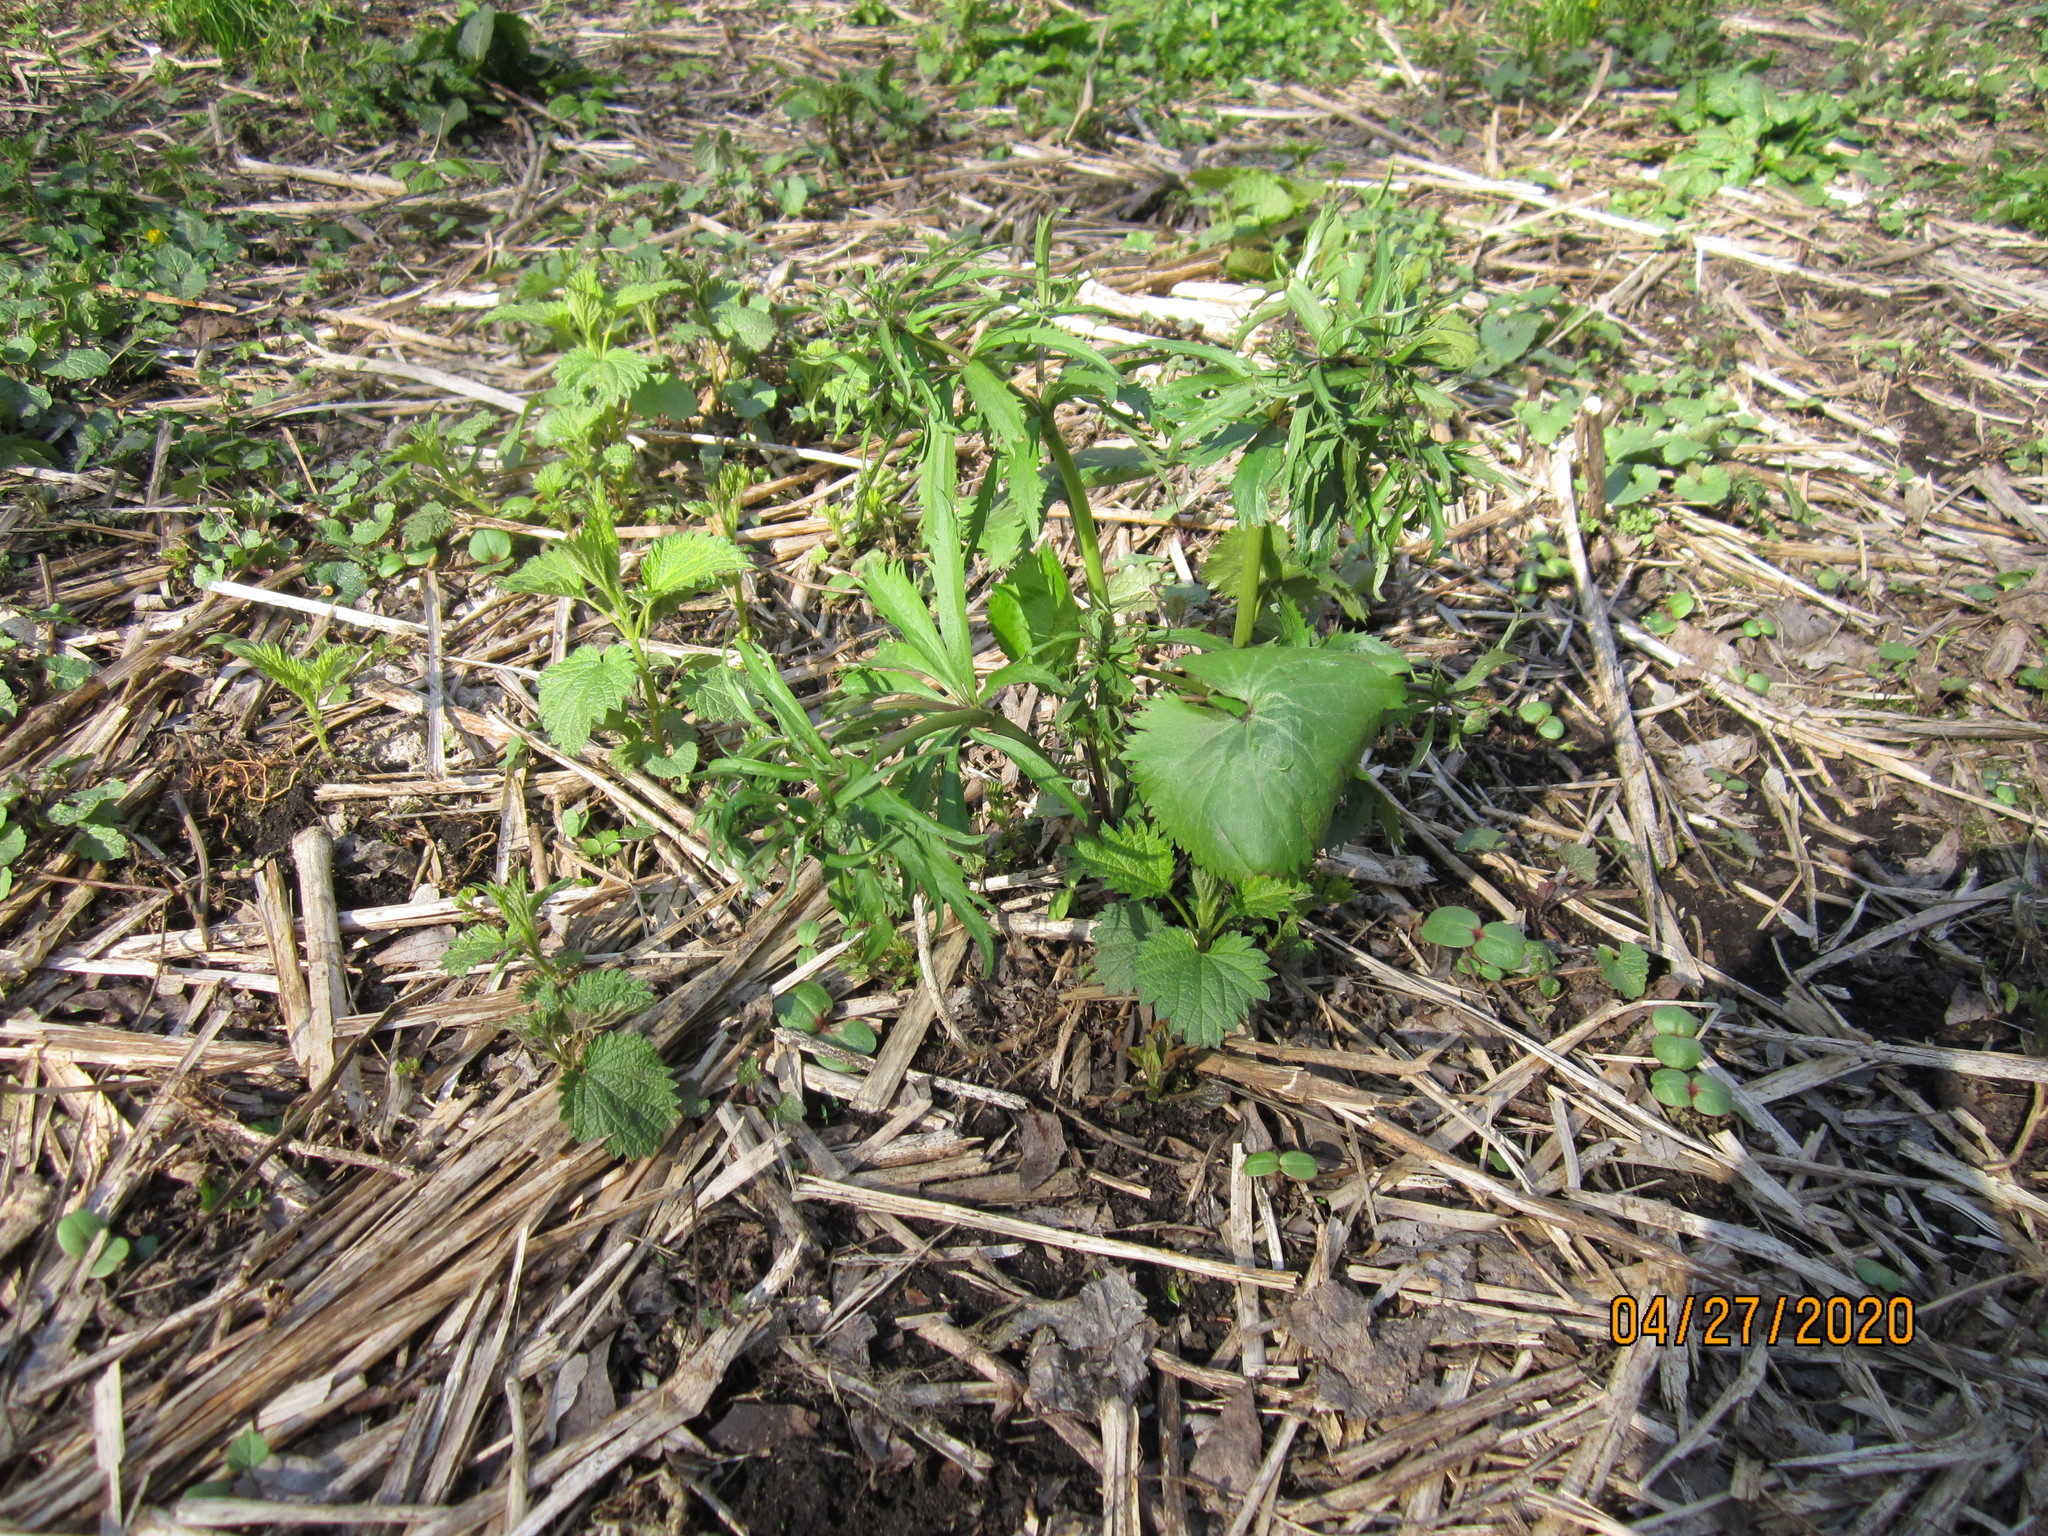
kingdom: Plantae
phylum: Tracheophyta
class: Magnoliopsida
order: Ranunculales
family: Ranunculaceae
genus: Ranunculus
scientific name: Ranunculus cassubicus
